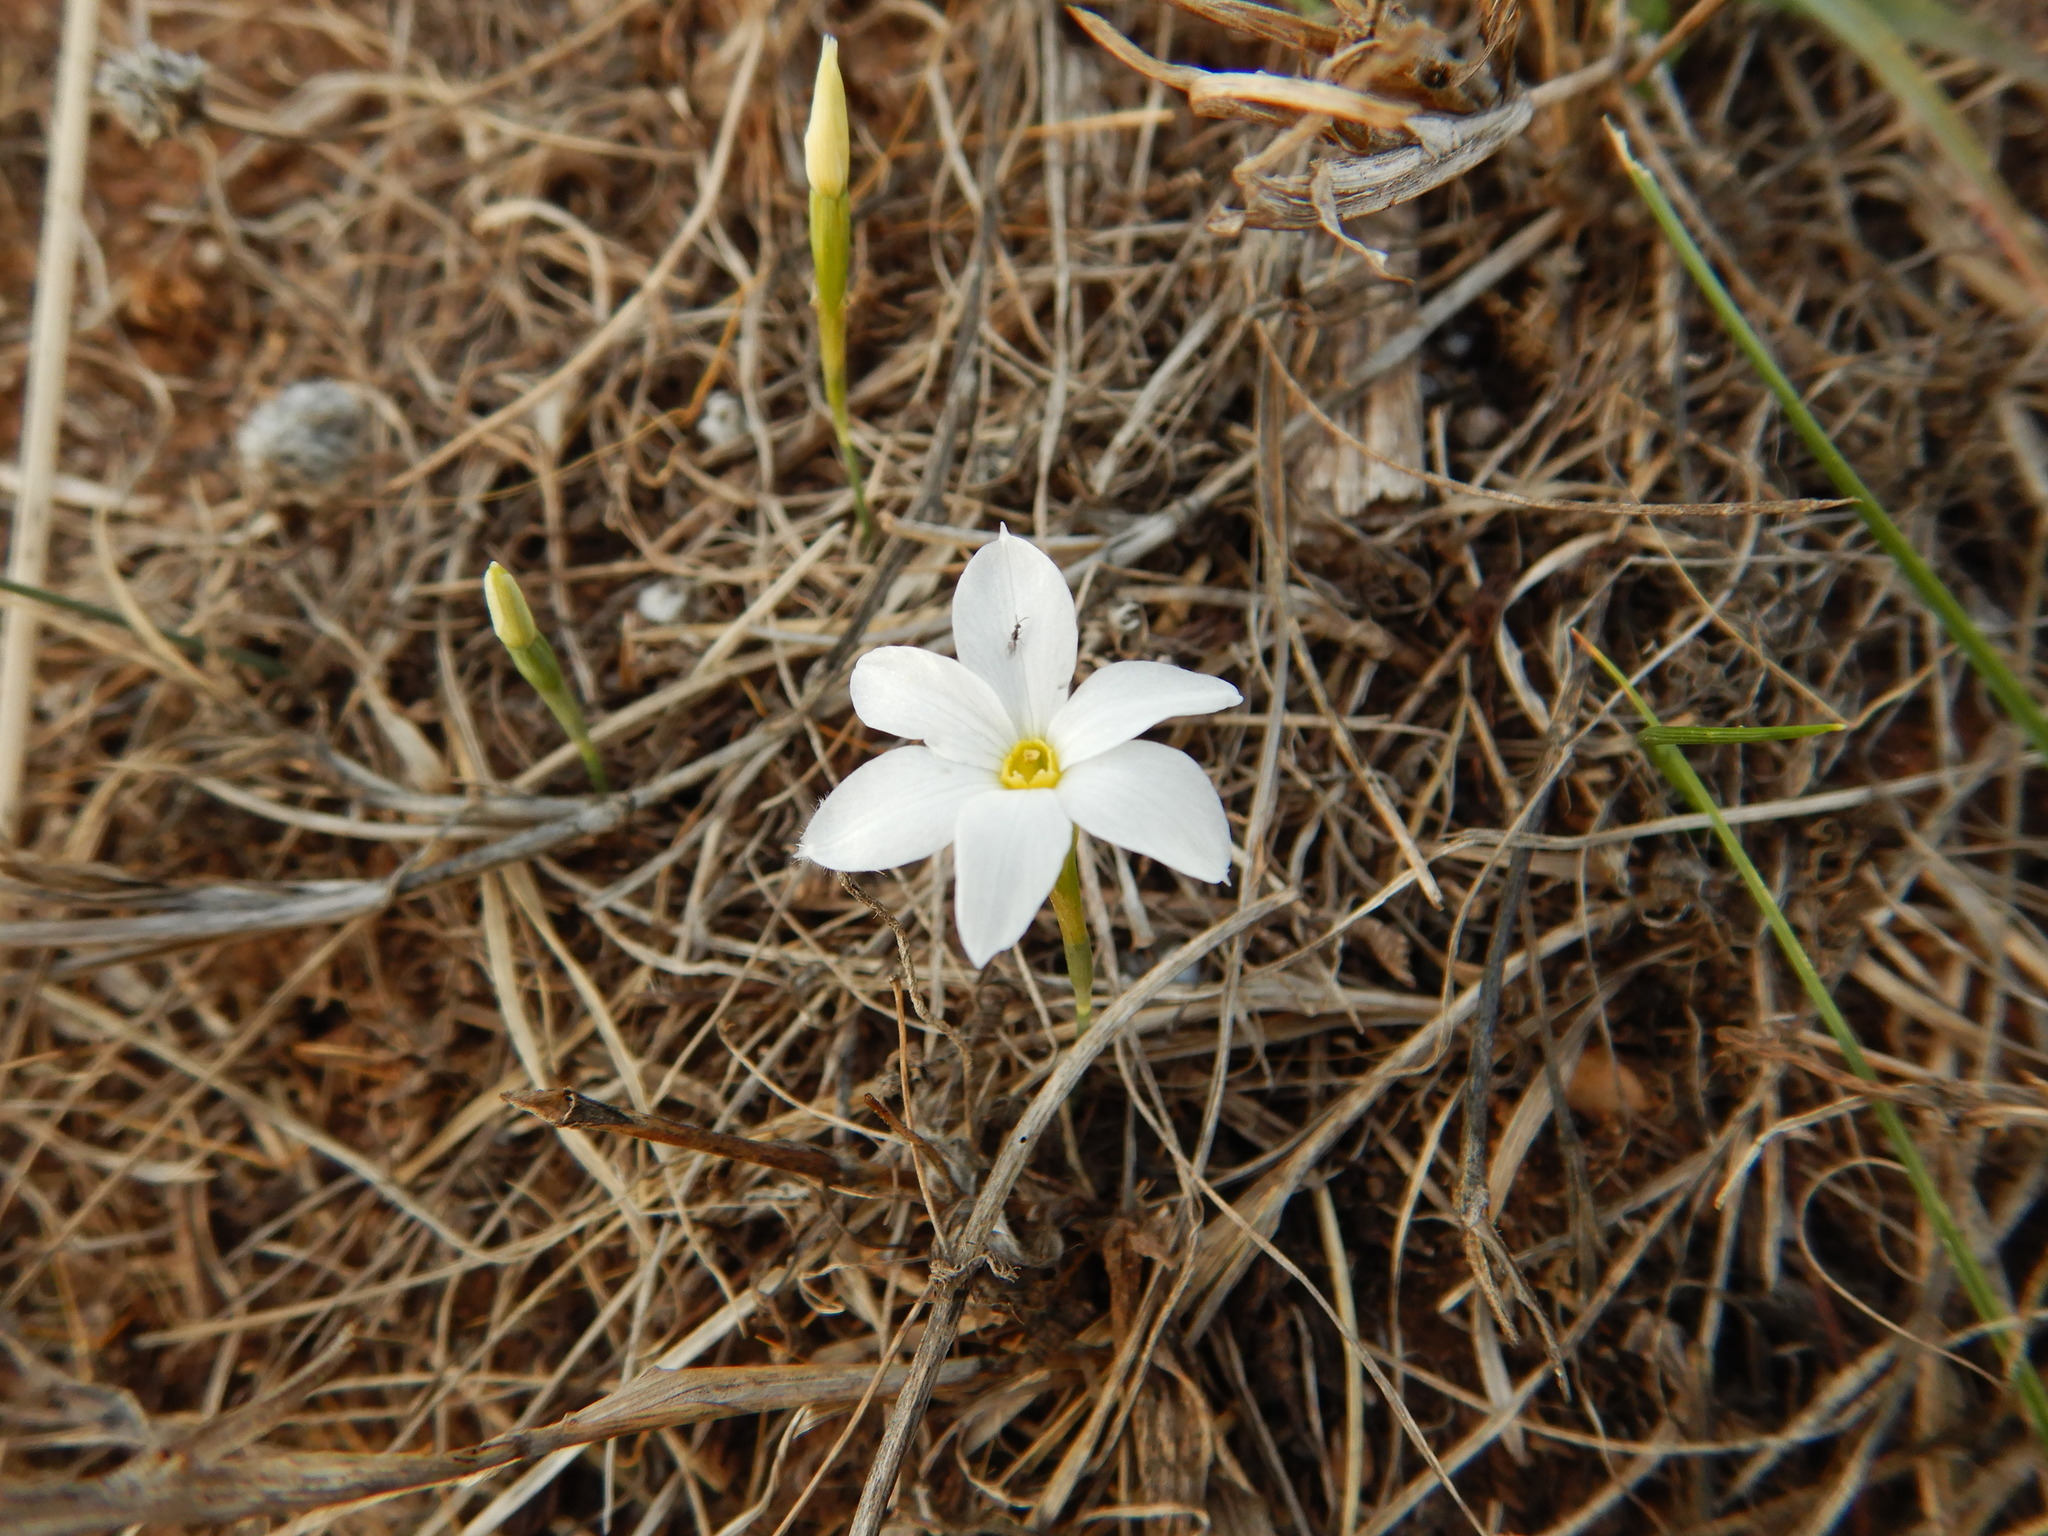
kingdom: Plantae
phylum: Tracheophyta
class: Liliopsida
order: Asparagales
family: Amaryllidaceae
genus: Narcissus
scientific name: Narcissus serotinus
